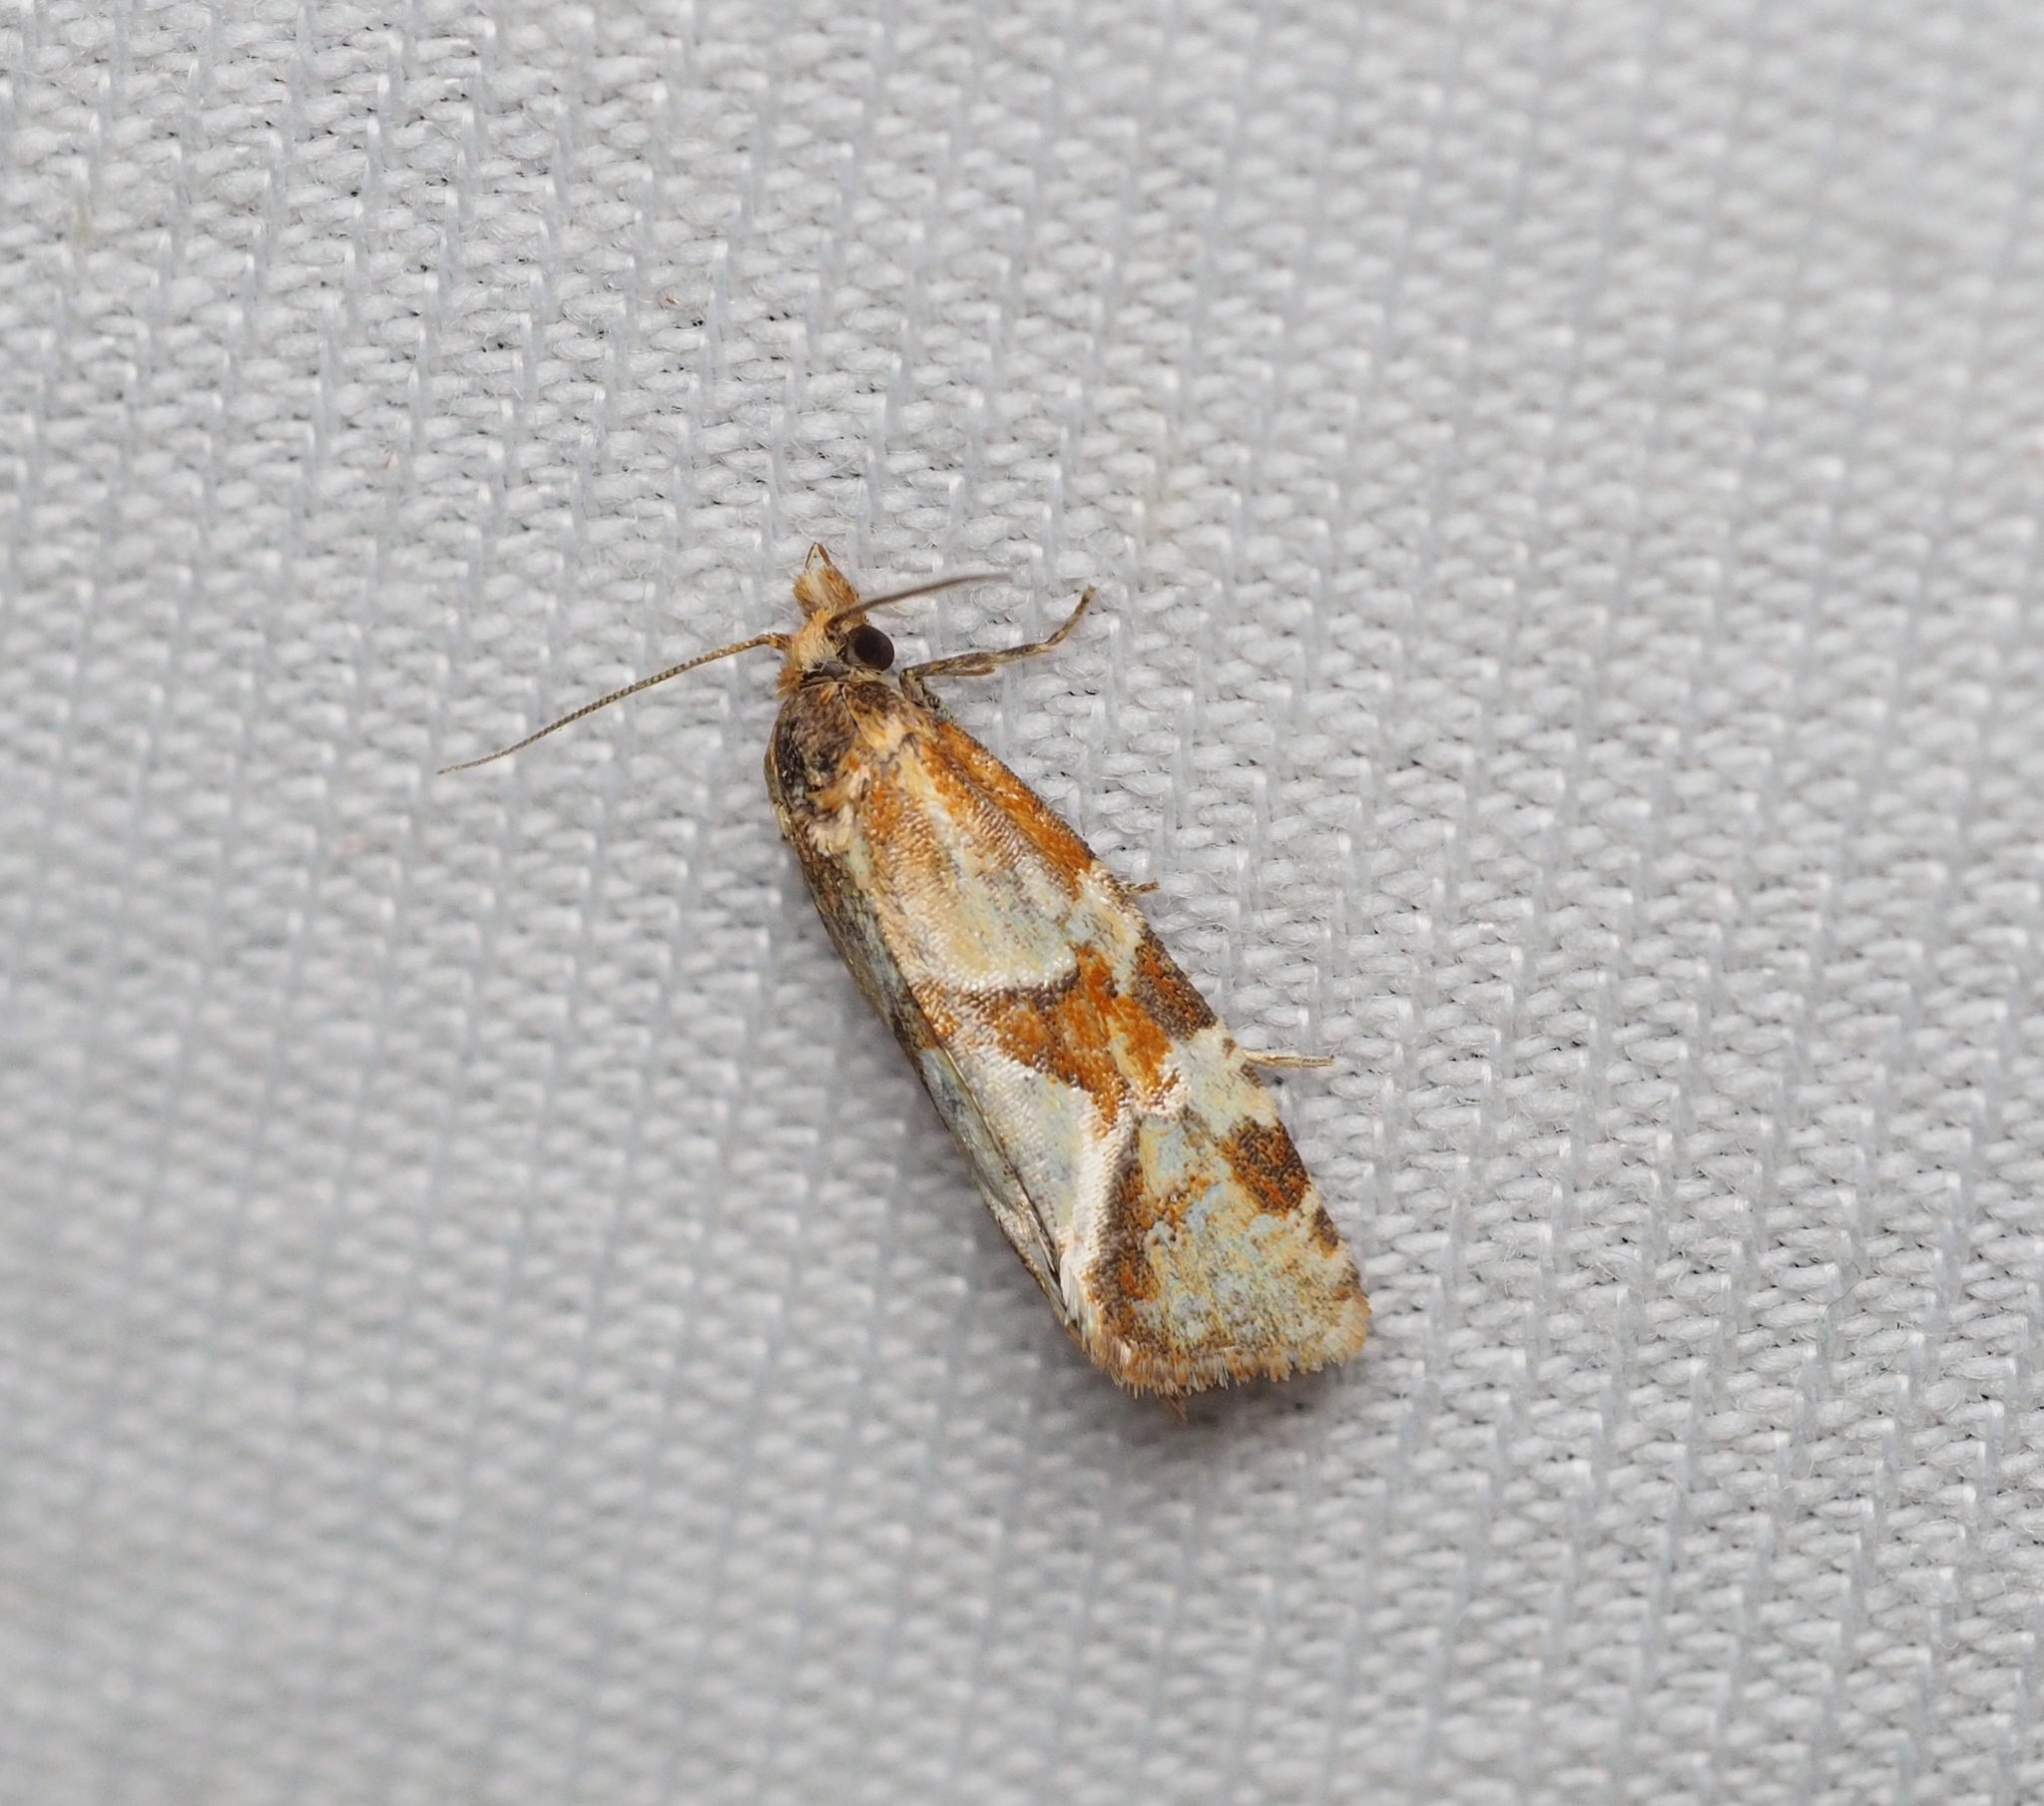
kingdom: Animalia
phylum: Arthropoda
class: Insecta
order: Lepidoptera
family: Tortricidae
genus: Aethes
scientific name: Aethes hartmanniana
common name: Scabious conch
